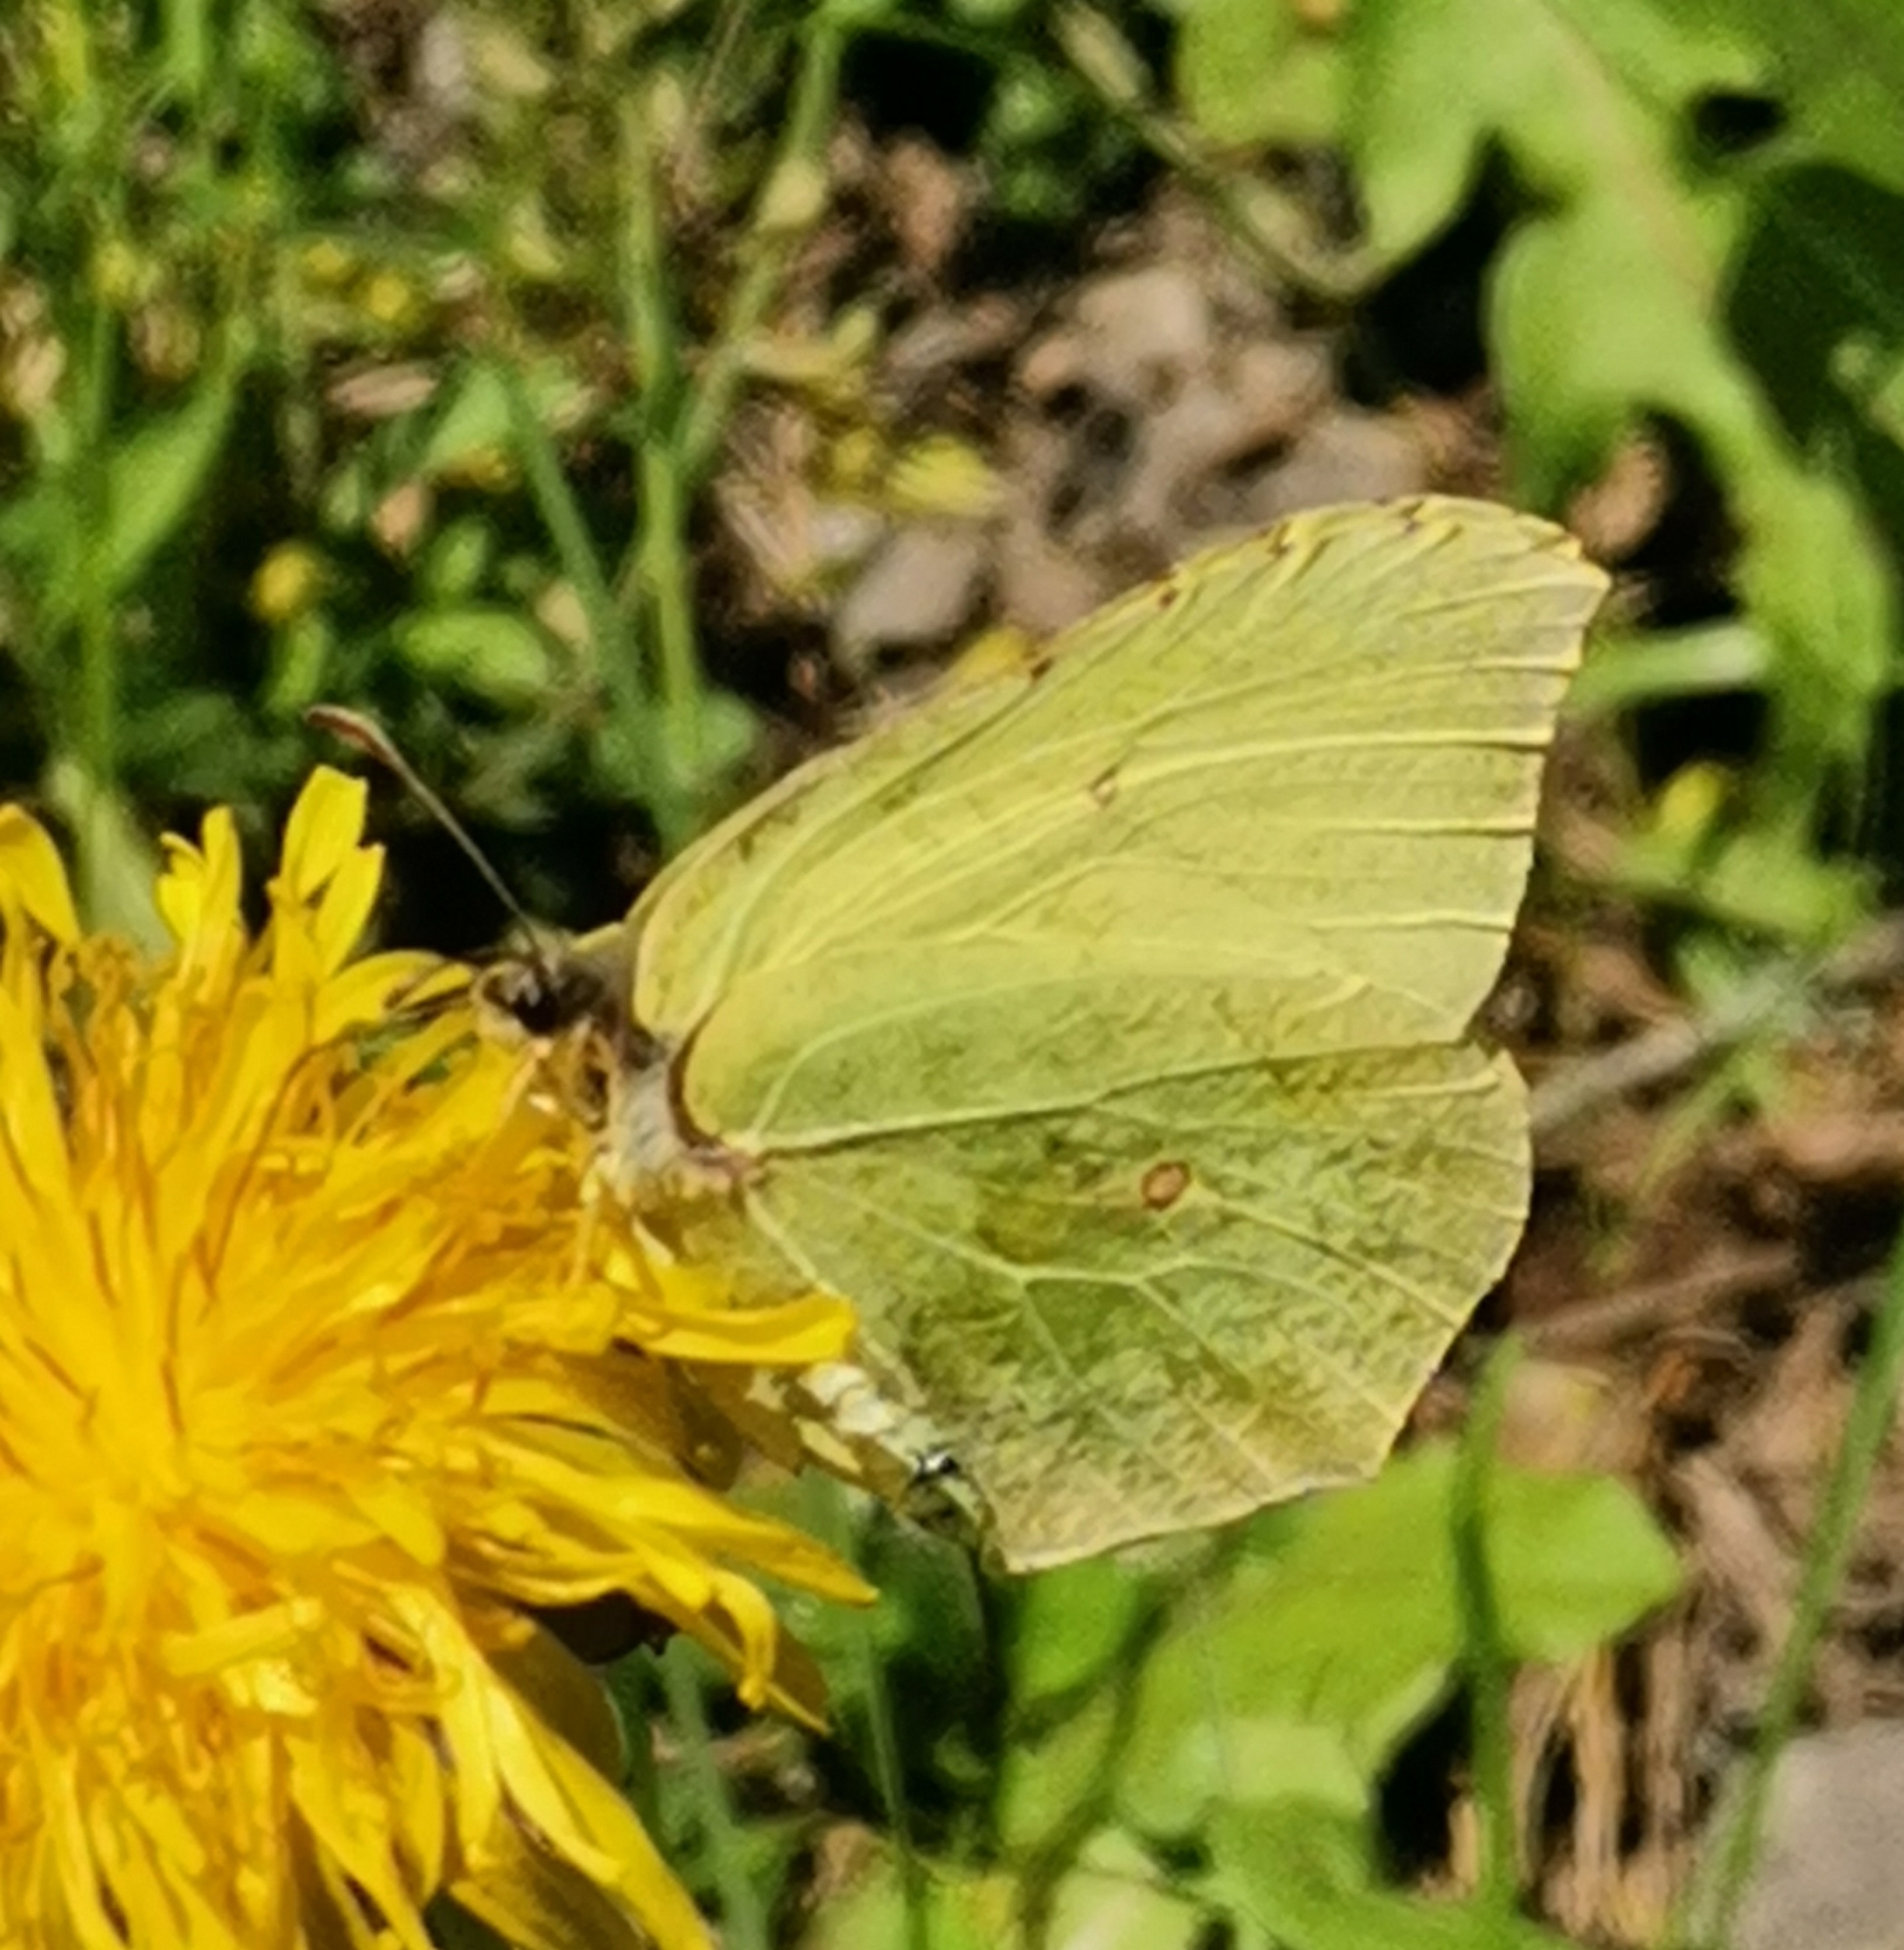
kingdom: Animalia
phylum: Arthropoda
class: Insecta
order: Lepidoptera
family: Pieridae
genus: Gonepteryx
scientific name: Gonepteryx rhamni
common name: Brimstone
